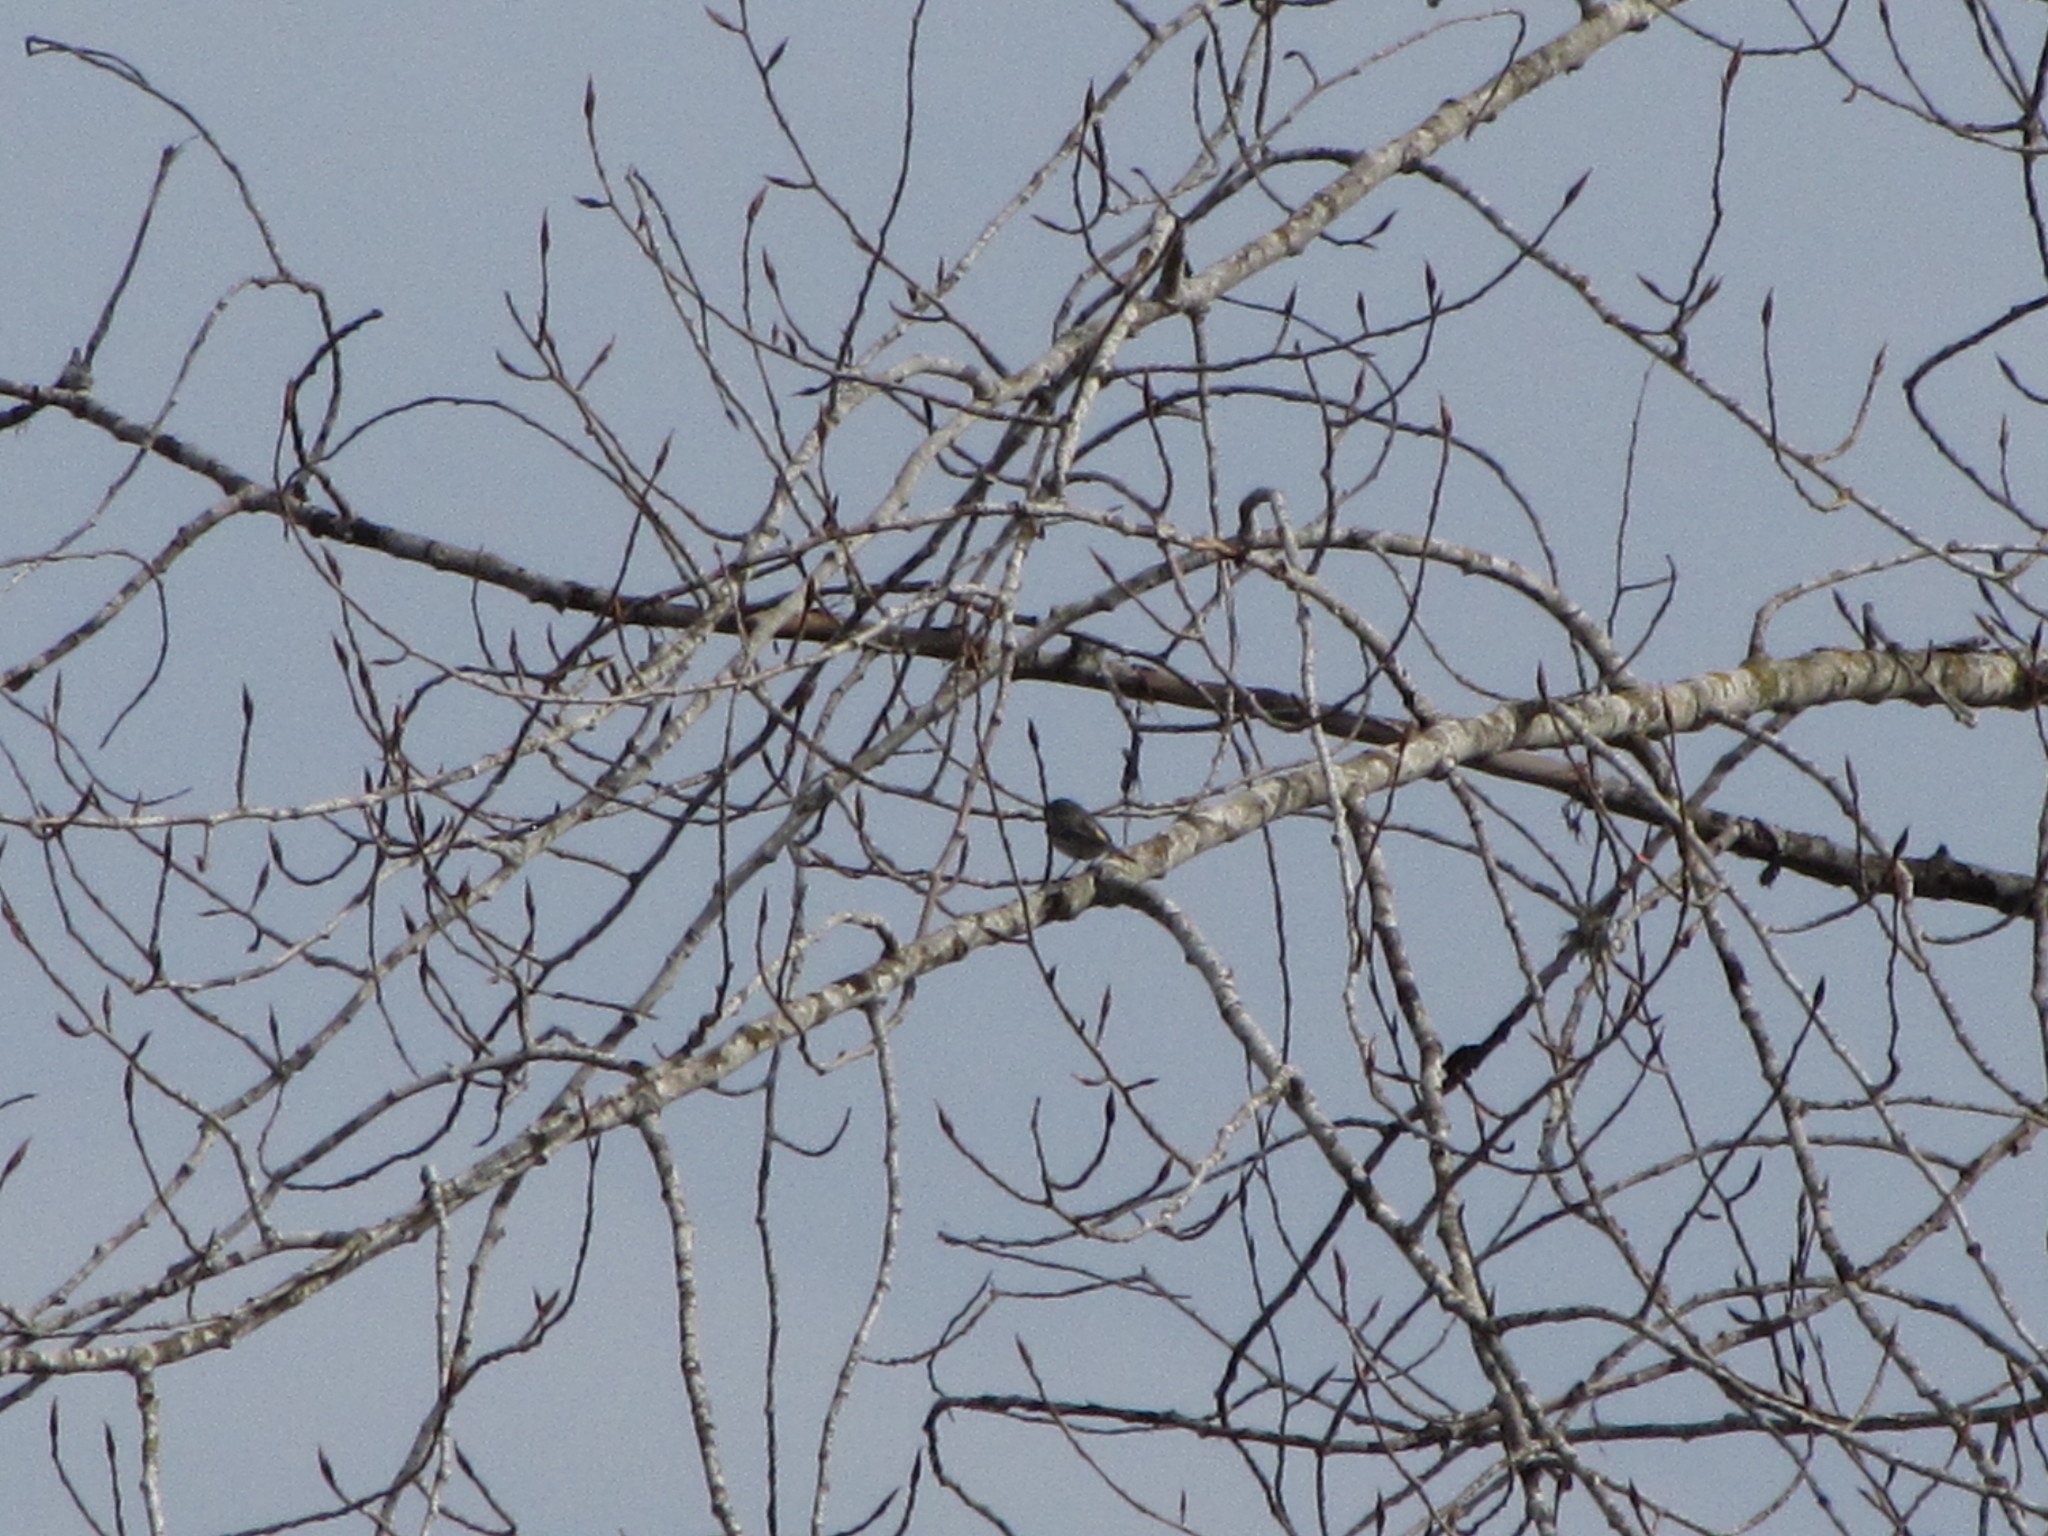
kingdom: Animalia
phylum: Chordata
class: Aves
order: Passeriformes
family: Parulidae
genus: Setophaga
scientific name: Setophaga auduboni
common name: Audubon's warbler
